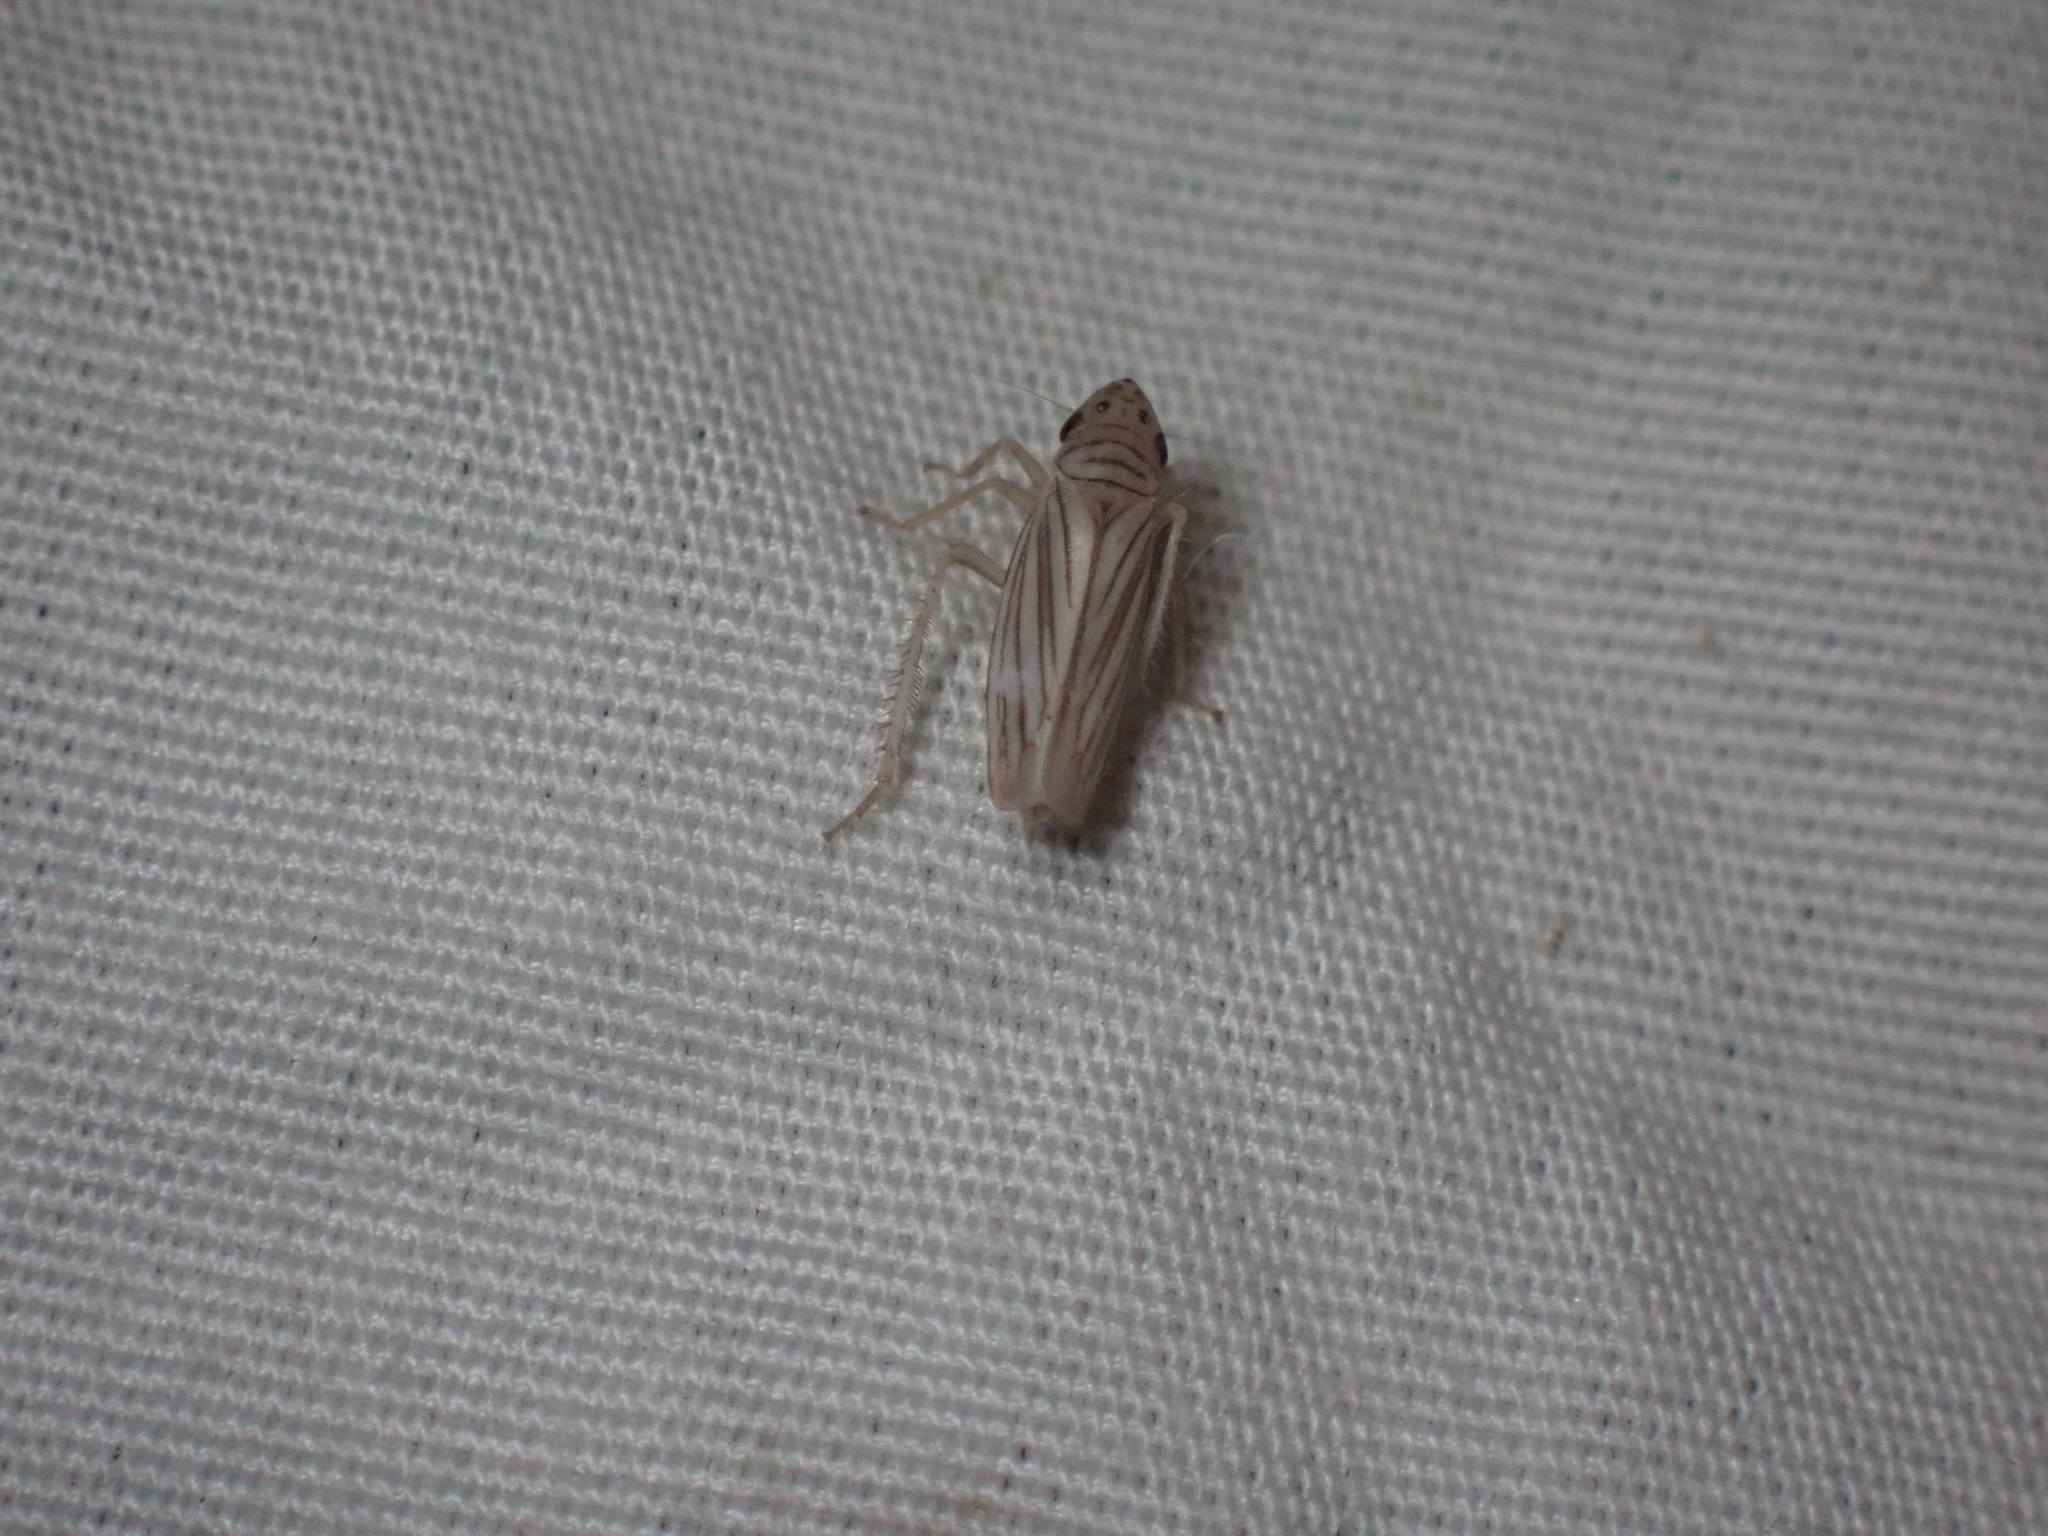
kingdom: Animalia
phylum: Arthropoda
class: Insecta
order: Hemiptera
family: Cicadellidae
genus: Provancherana
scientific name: Provancherana tripunctata
